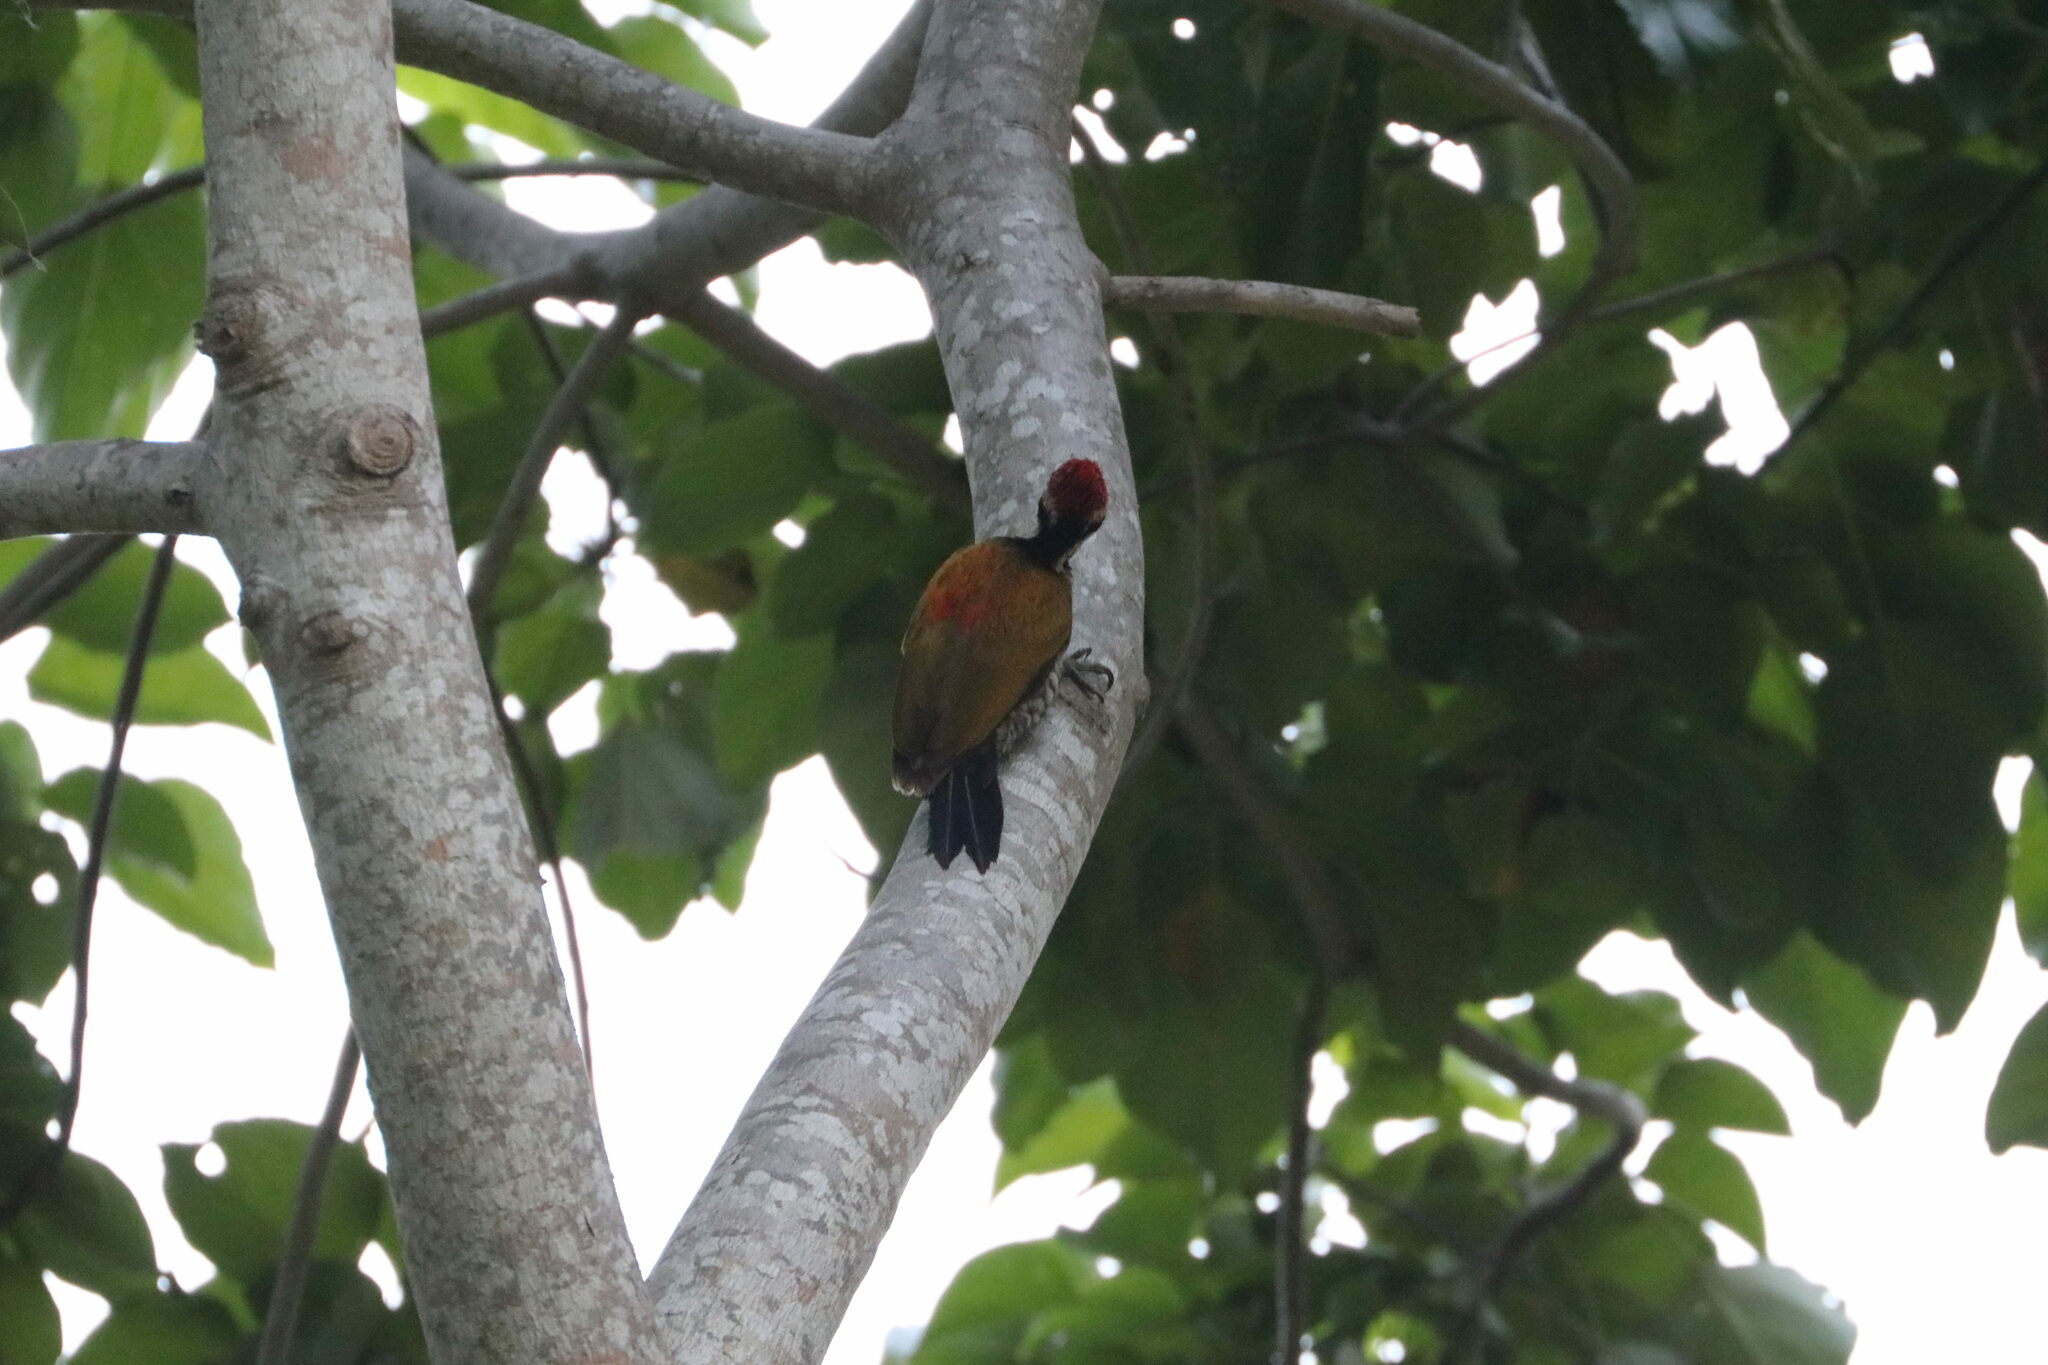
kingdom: Animalia
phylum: Chordata
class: Aves
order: Piciformes
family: Picidae
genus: Dinopium
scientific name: Dinopium everetti
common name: Spot-throated flameback
